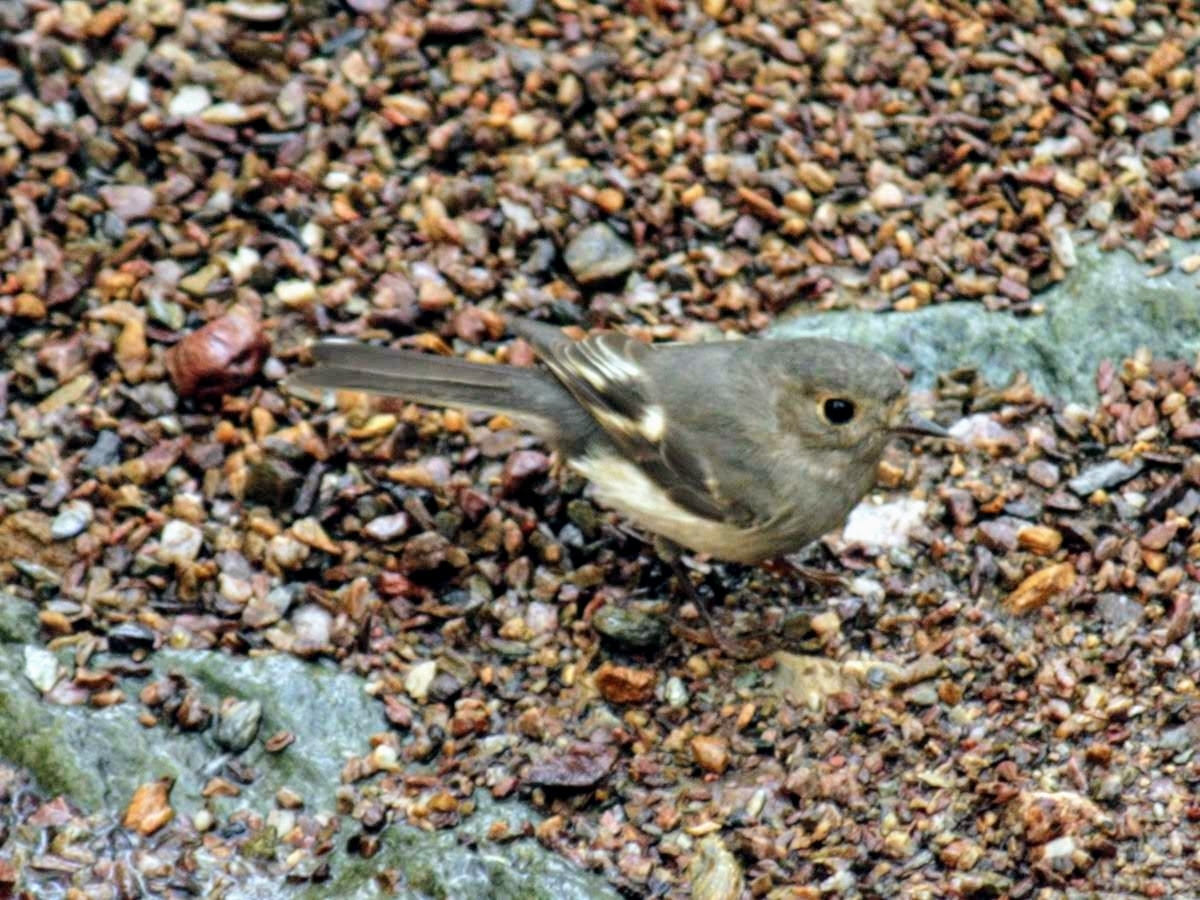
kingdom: Animalia
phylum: Chordata
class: Aves
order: Passeriformes
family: Petroicidae
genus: Petroica
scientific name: Petroica rosea
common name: Rose robin
